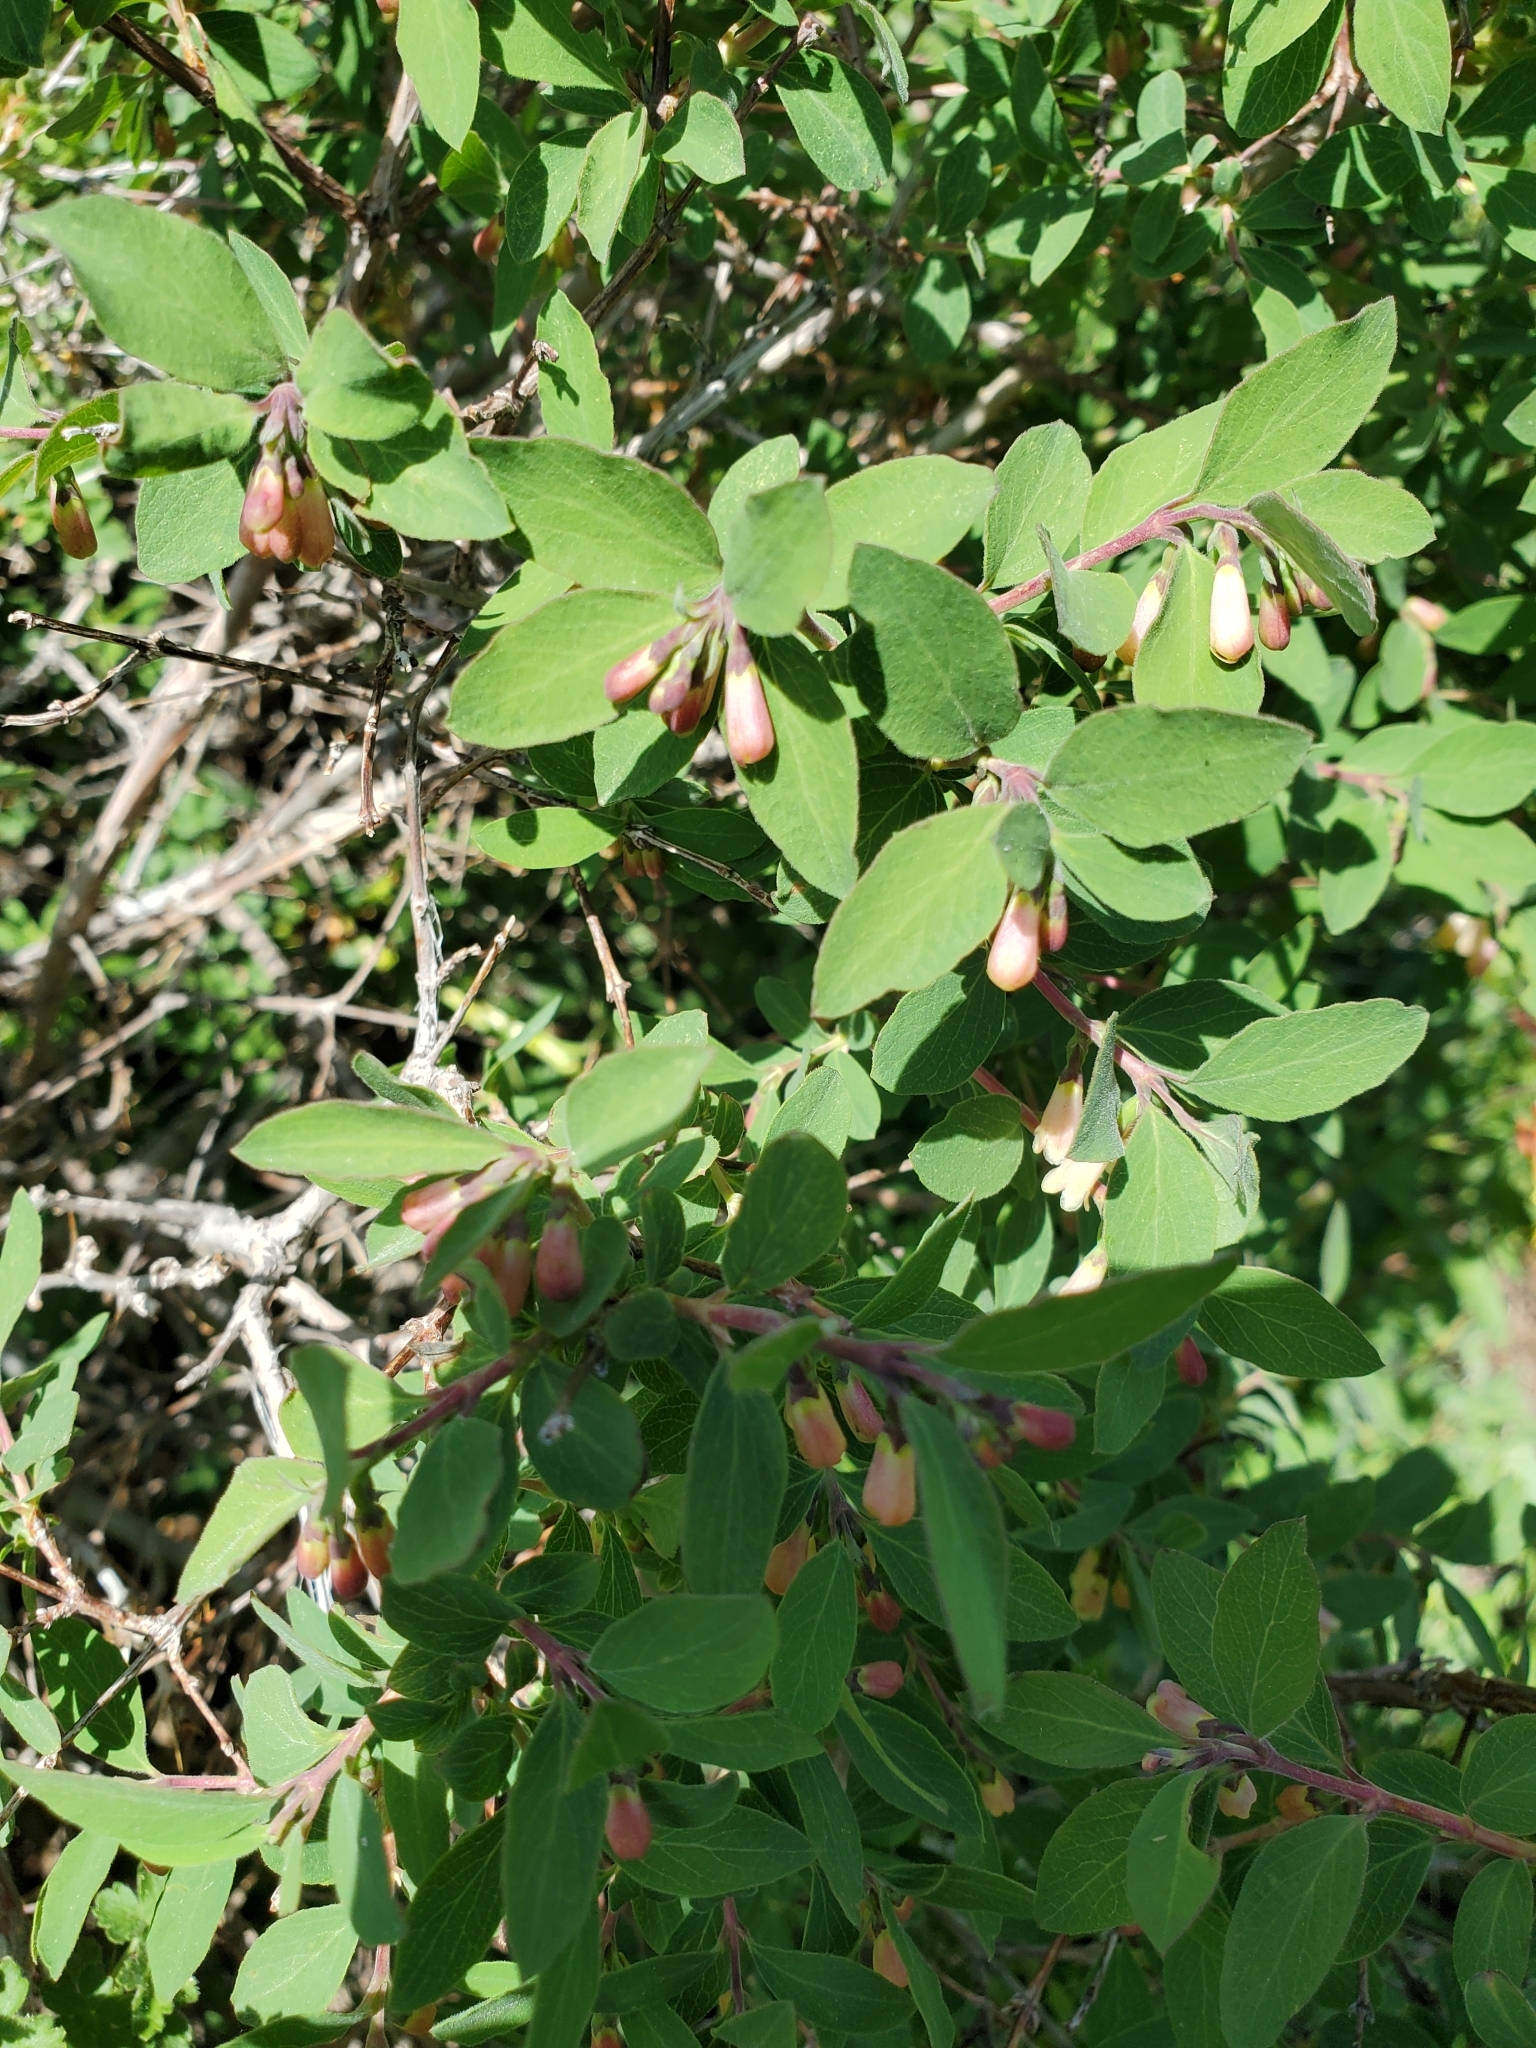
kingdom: Plantae
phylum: Tracheophyta
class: Magnoliopsida
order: Dipsacales
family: Caprifoliaceae
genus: Symphoricarpos
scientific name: Symphoricarpos rotundifolius
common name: Round-leaved snowberry
